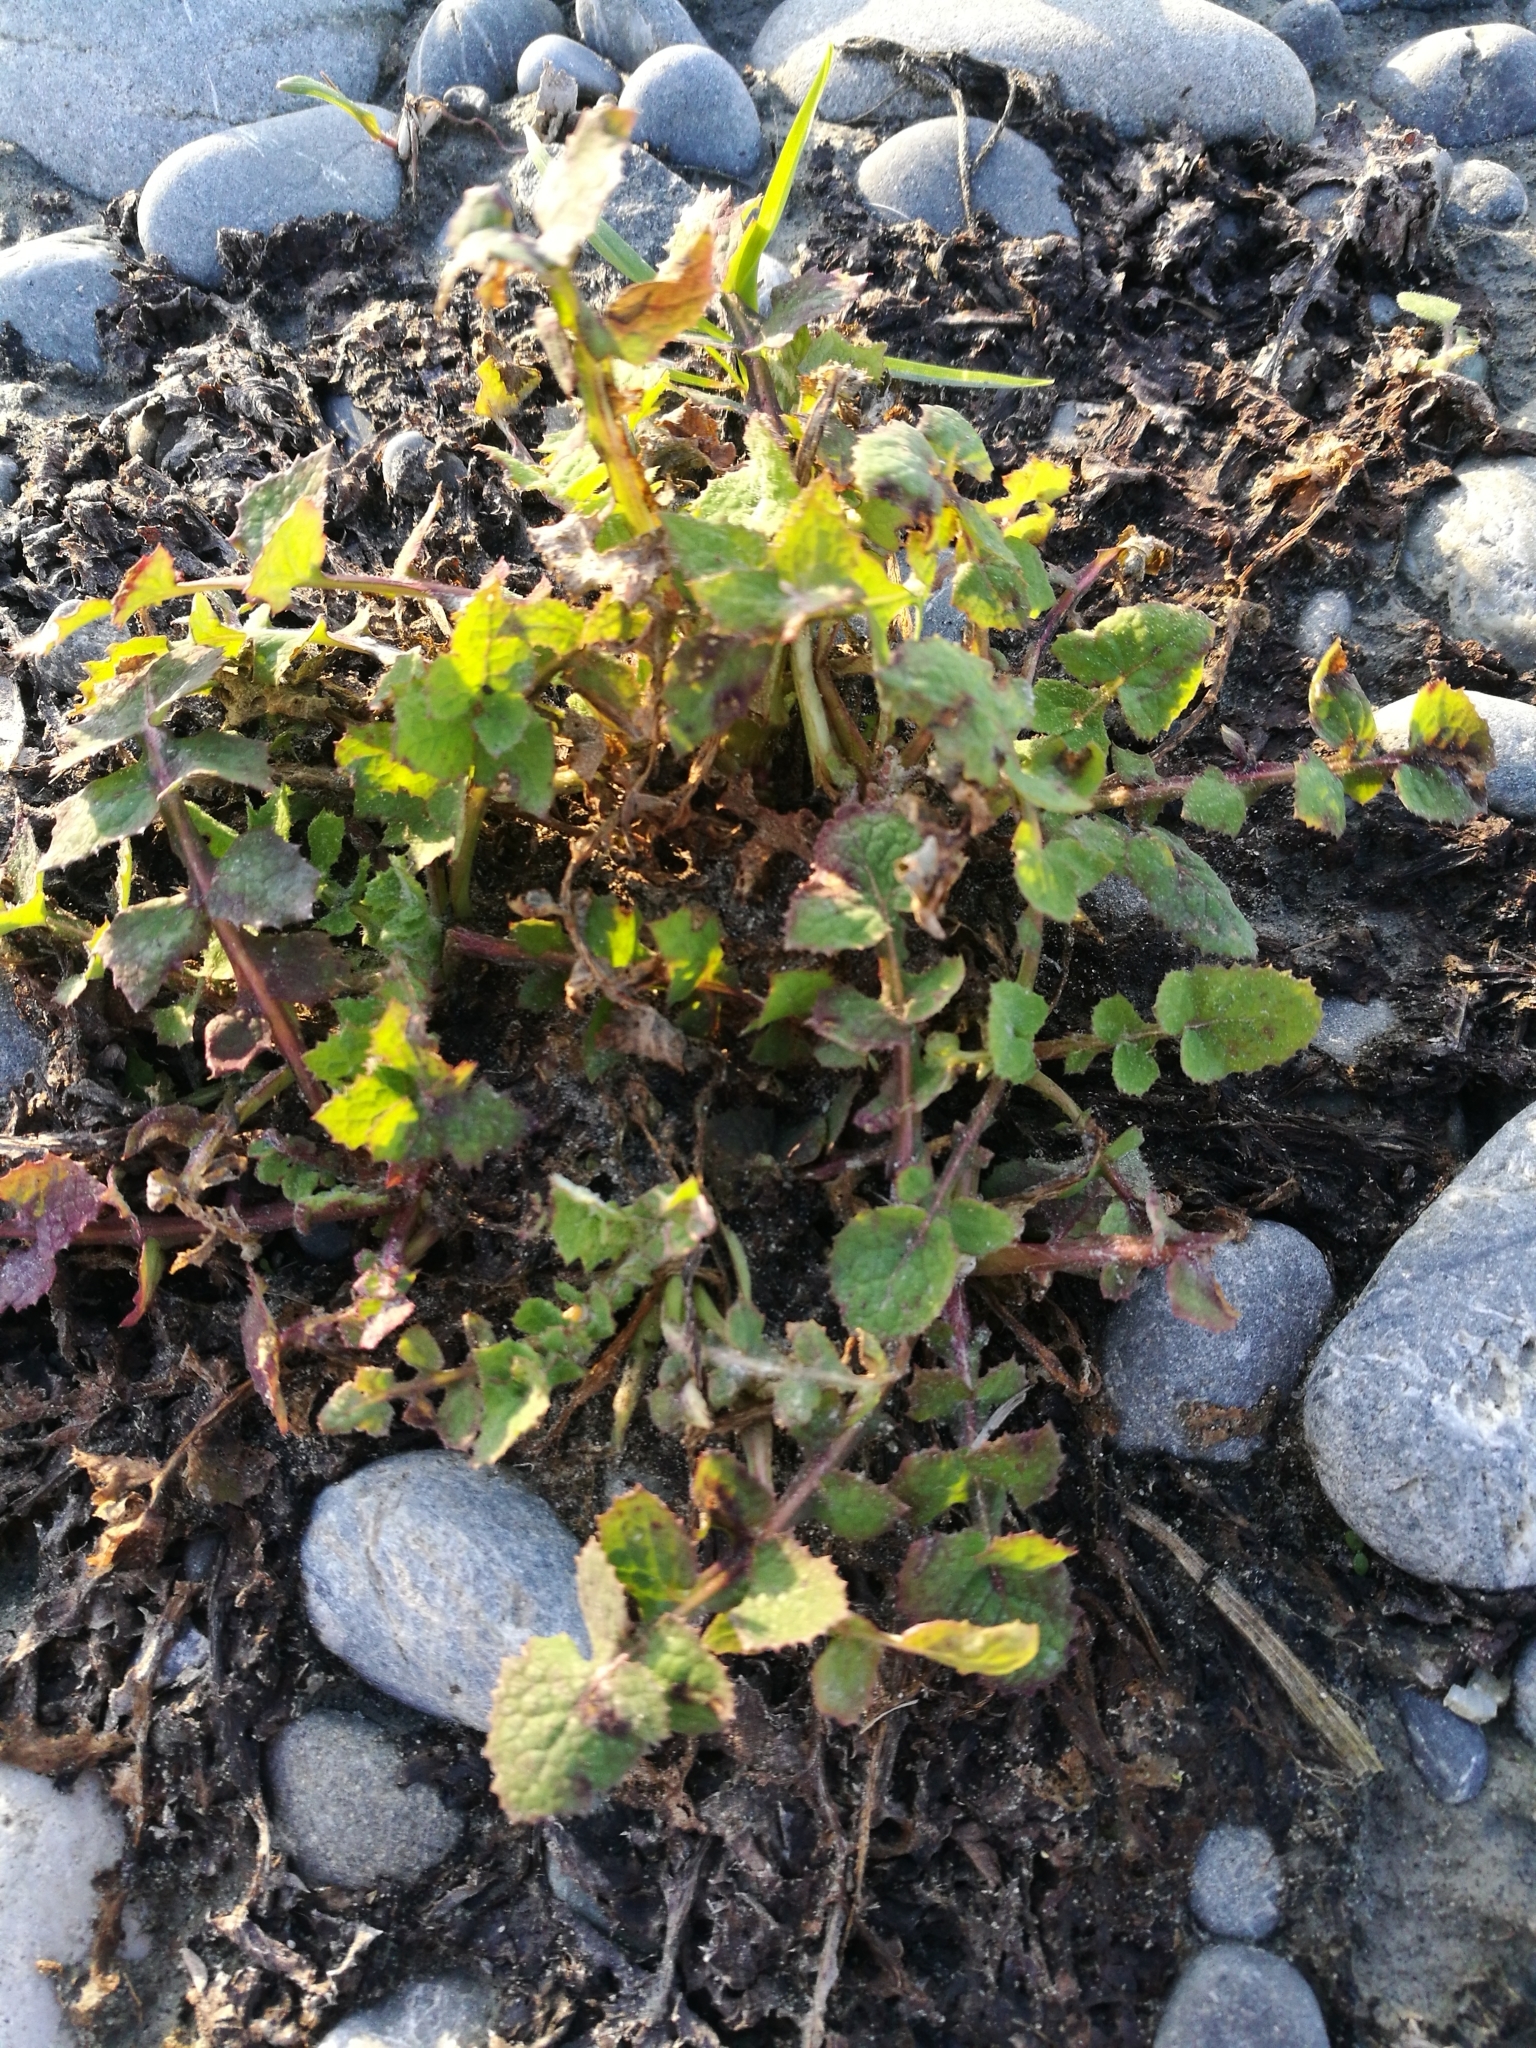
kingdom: Plantae
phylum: Tracheophyta
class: Magnoliopsida
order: Asterales
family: Asteraceae
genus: Sonchus
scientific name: Sonchus oleraceus
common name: Common sowthistle
